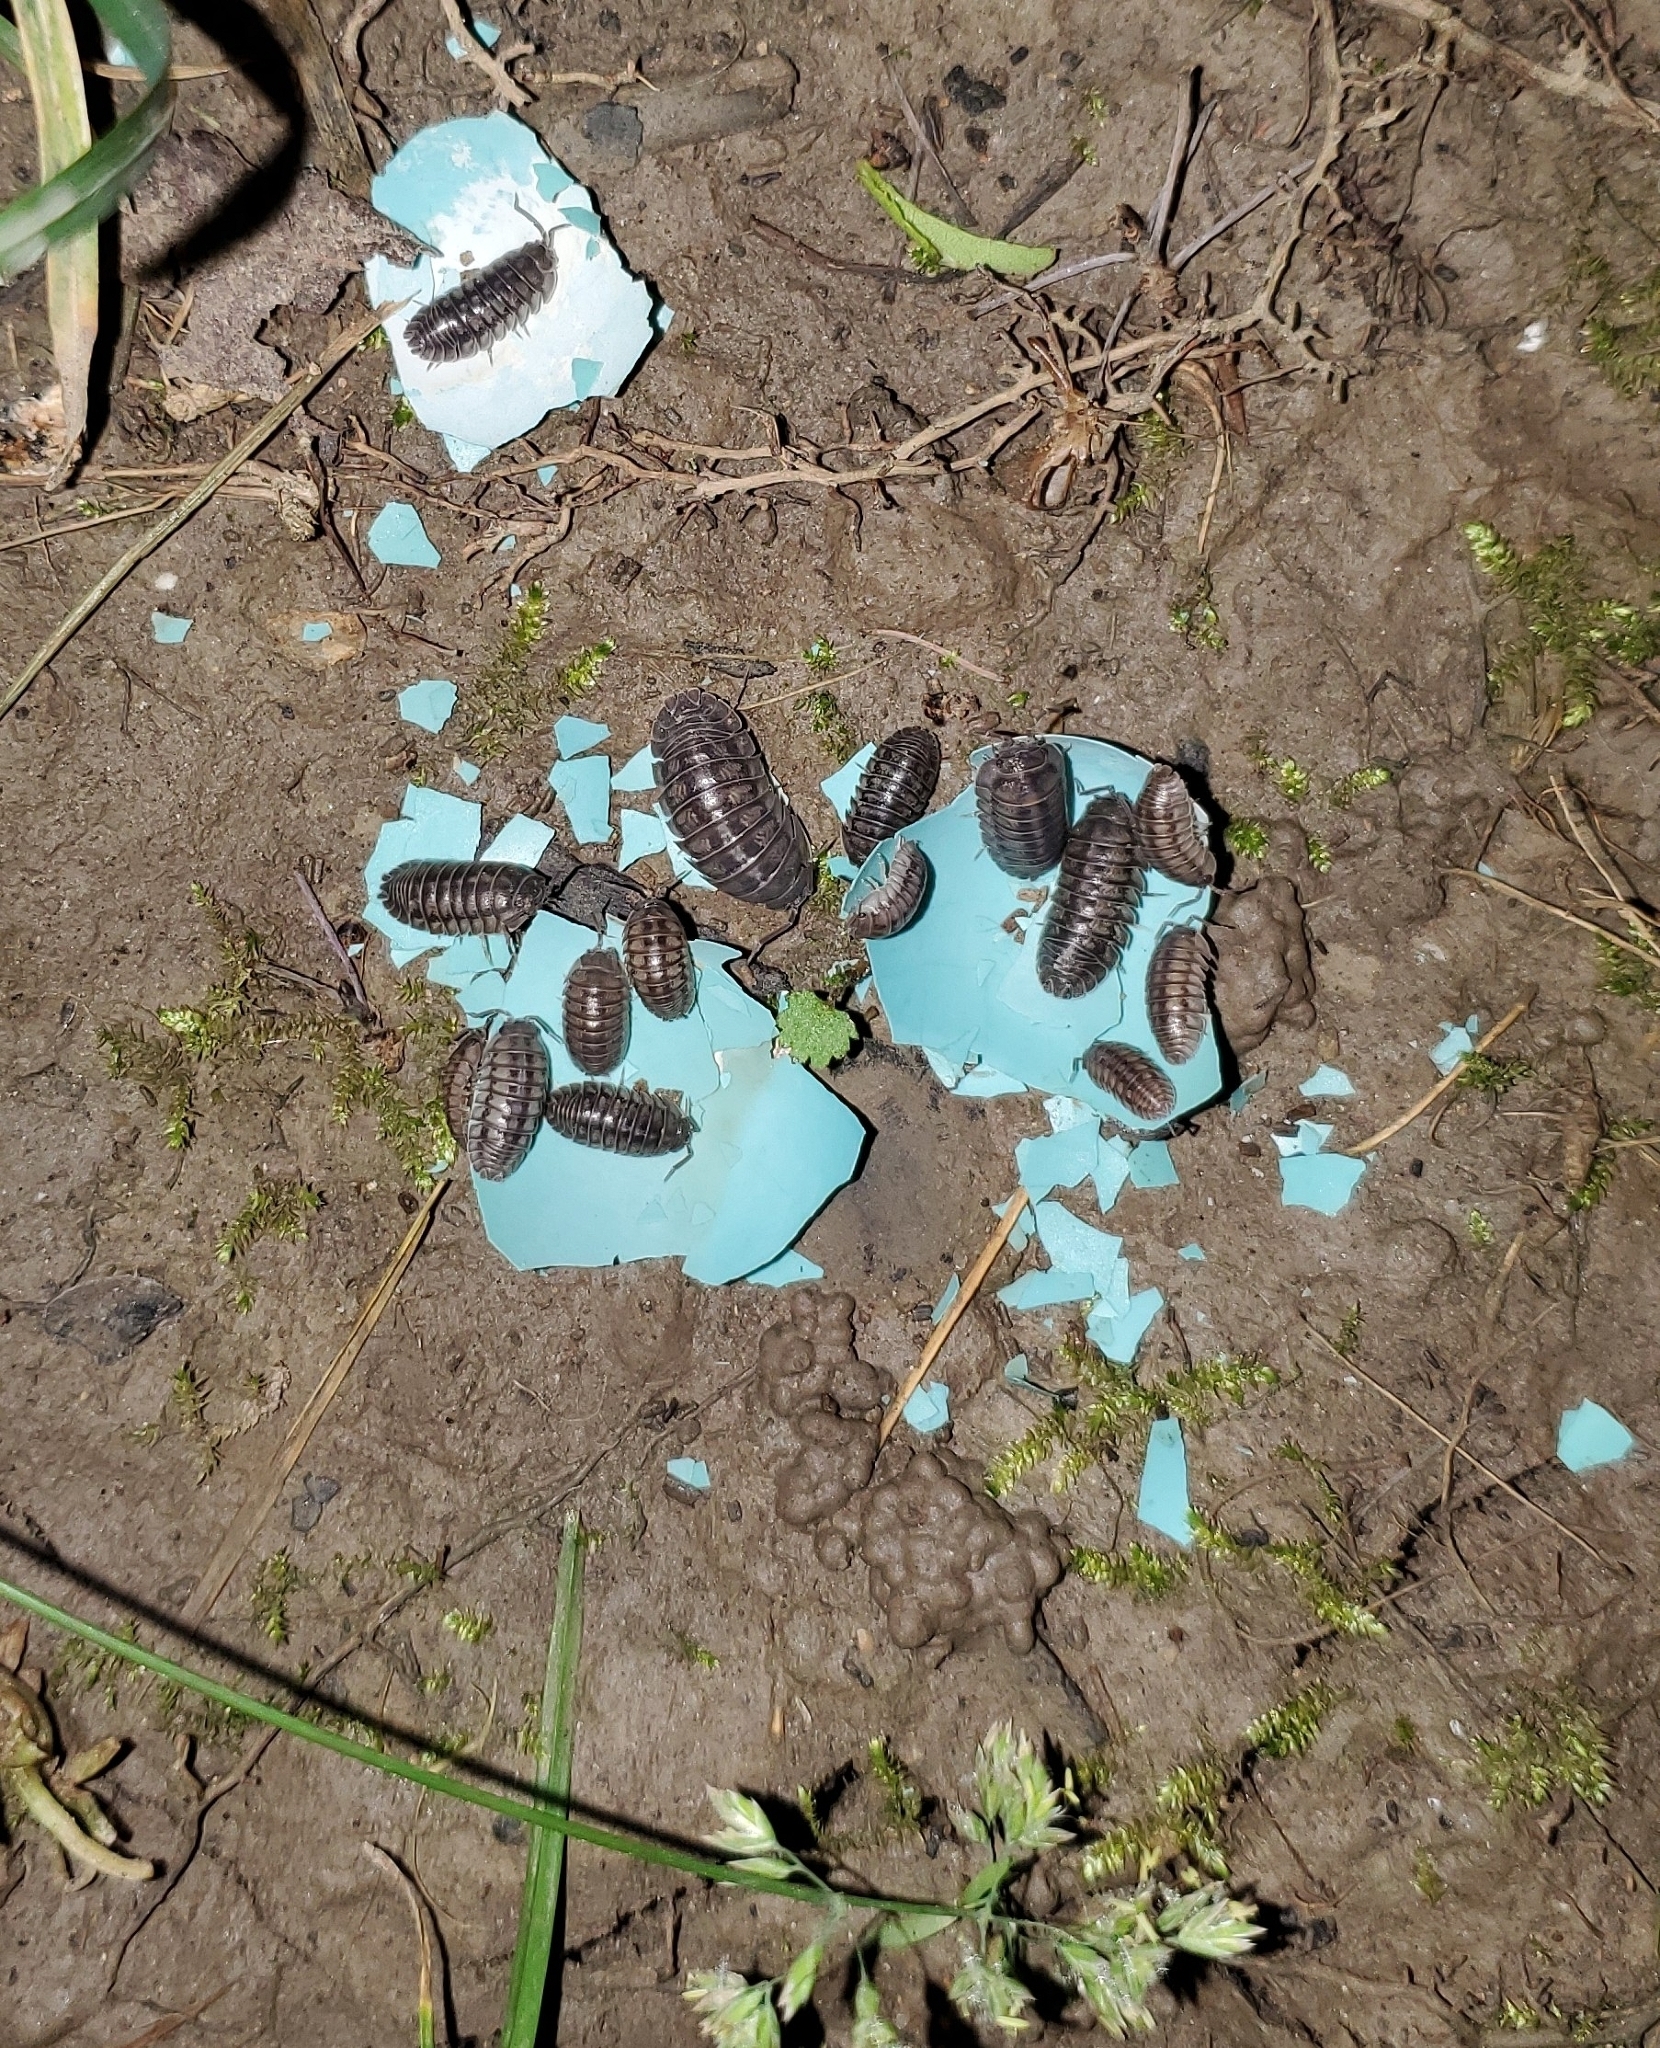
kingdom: Animalia
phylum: Chordata
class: Aves
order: Passeriformes
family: Turdidae
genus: Turdus
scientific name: Turdus migratorius
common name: American robin
